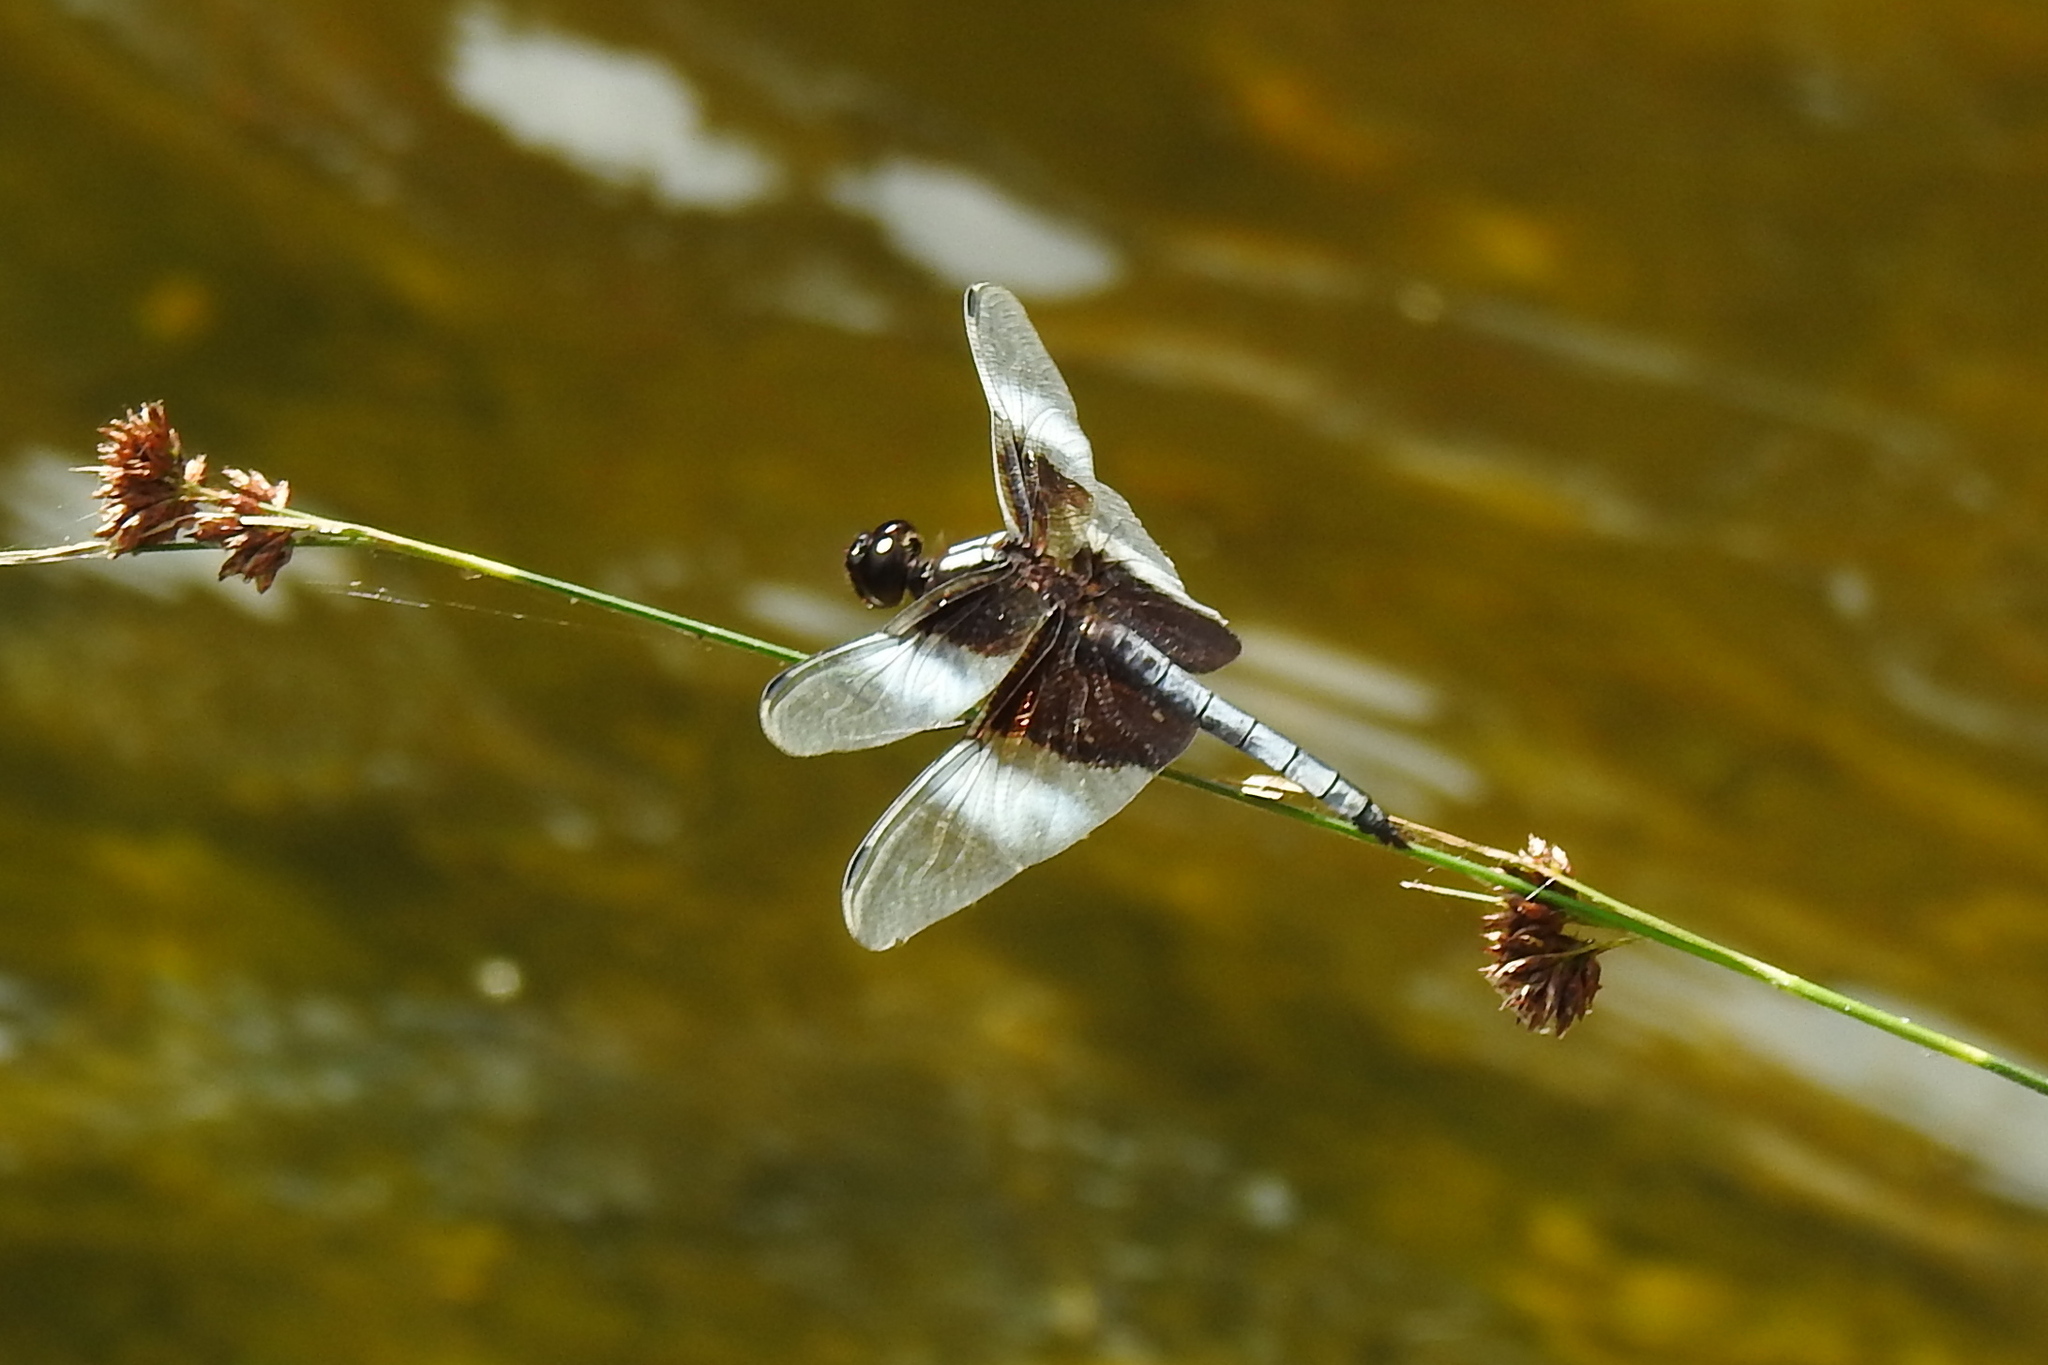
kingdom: Animalia
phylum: Arthropoda
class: Insecta
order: Odonata
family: Libellulidae
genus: Libellula
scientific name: Libellula luctuosa
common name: Widow skimmer
